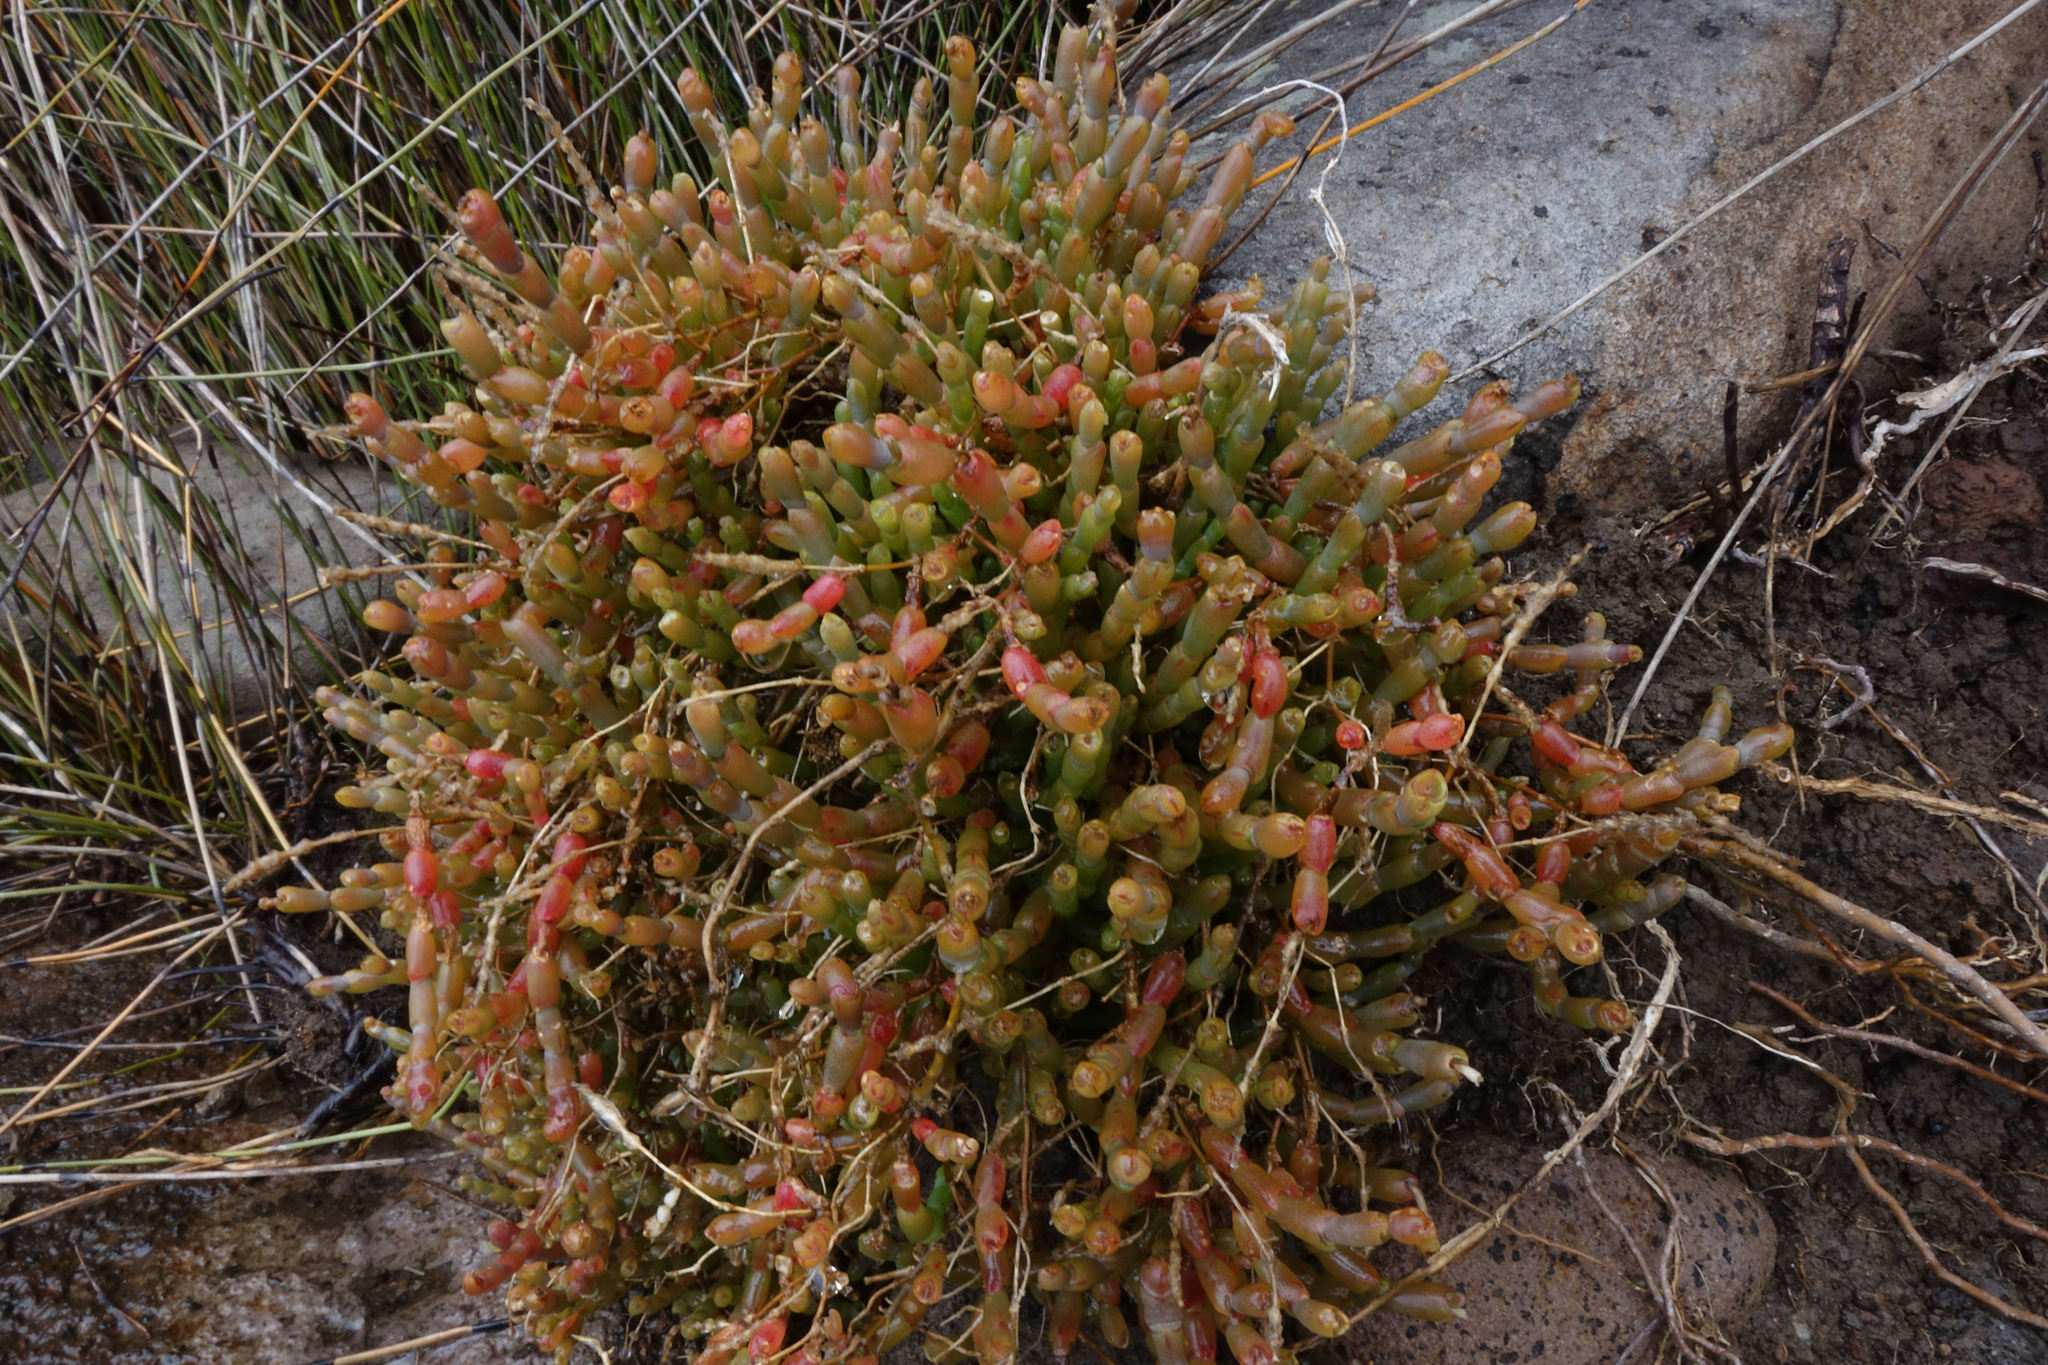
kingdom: Plantae
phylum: Tracheophyta
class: Magnoliopsida
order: Caryophyllales
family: Amaranthaceae
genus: Salicornia
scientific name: Salicornia quinqueflora
